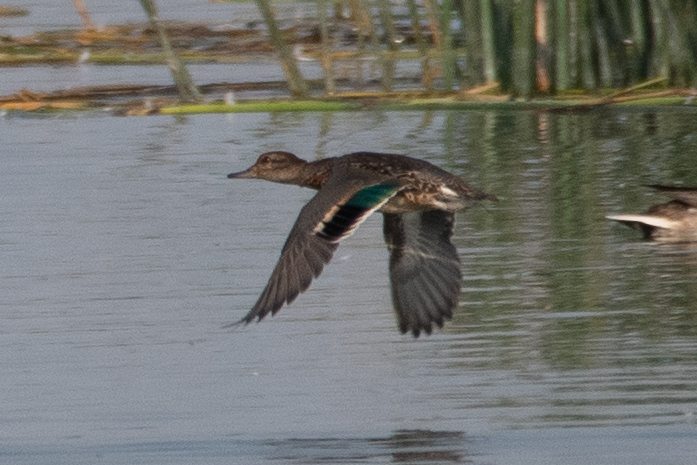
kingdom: Animalia
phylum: Chordata
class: Aves
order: Anseriformes
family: Anatidae
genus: Anas
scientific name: Anas crecca
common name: Eurasian teal
